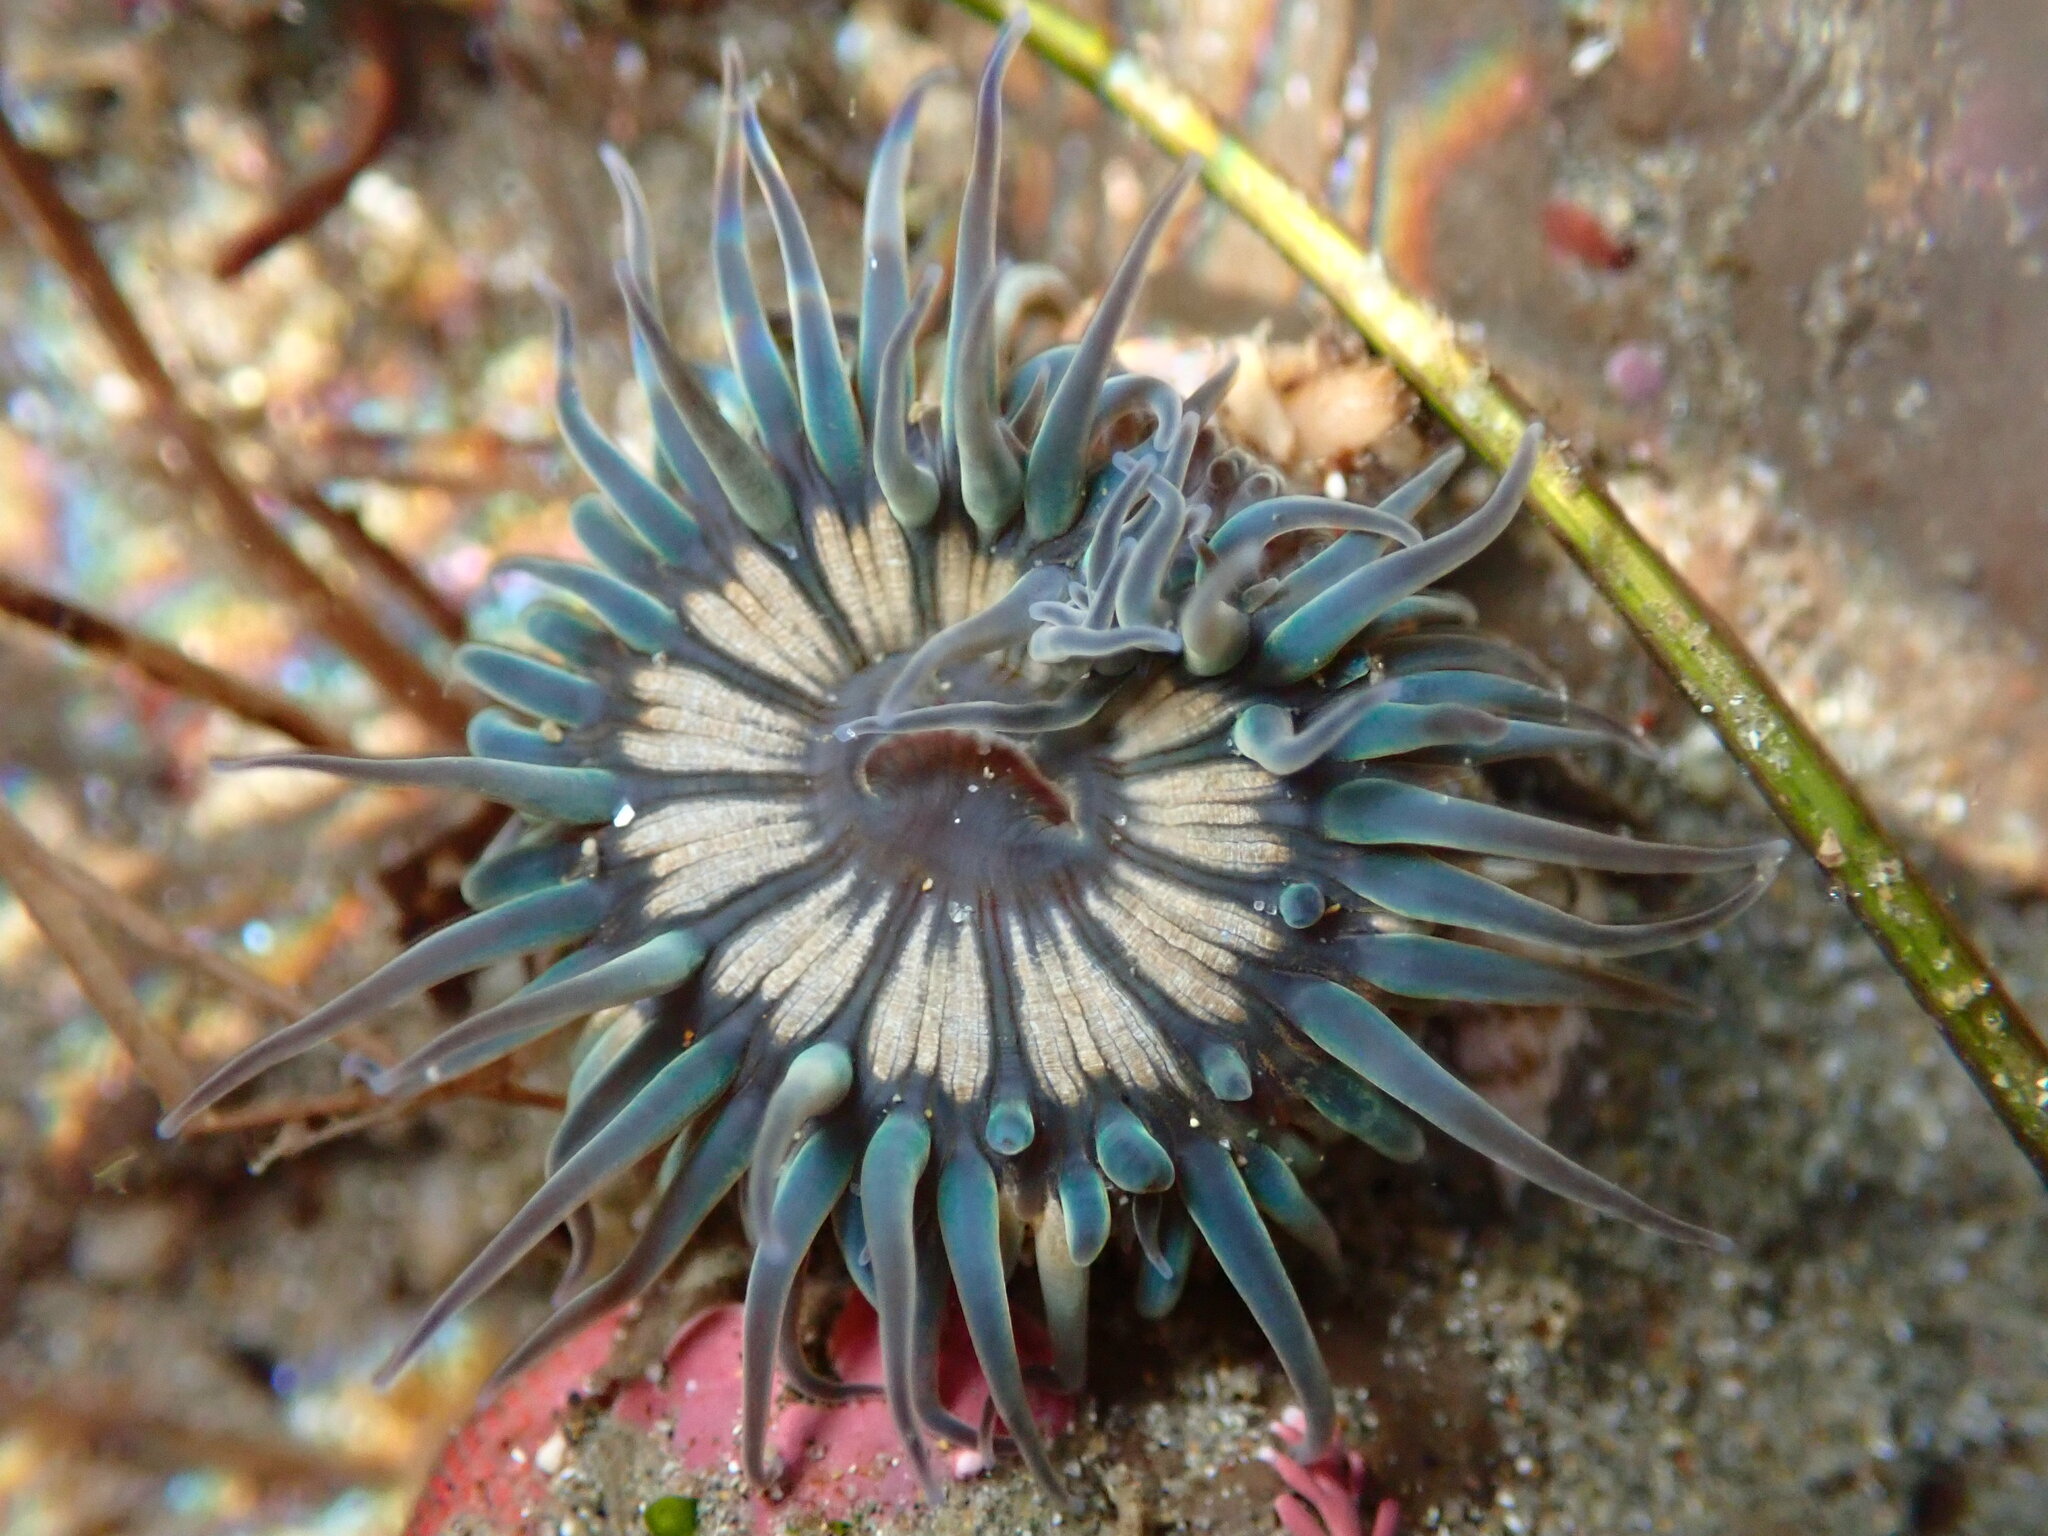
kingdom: Animalia
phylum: Cnidaria
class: Anthozoa
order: Actiniaria
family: Actiniidae
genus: Anthopleura
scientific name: Anthopleura sola
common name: Sun anemone
